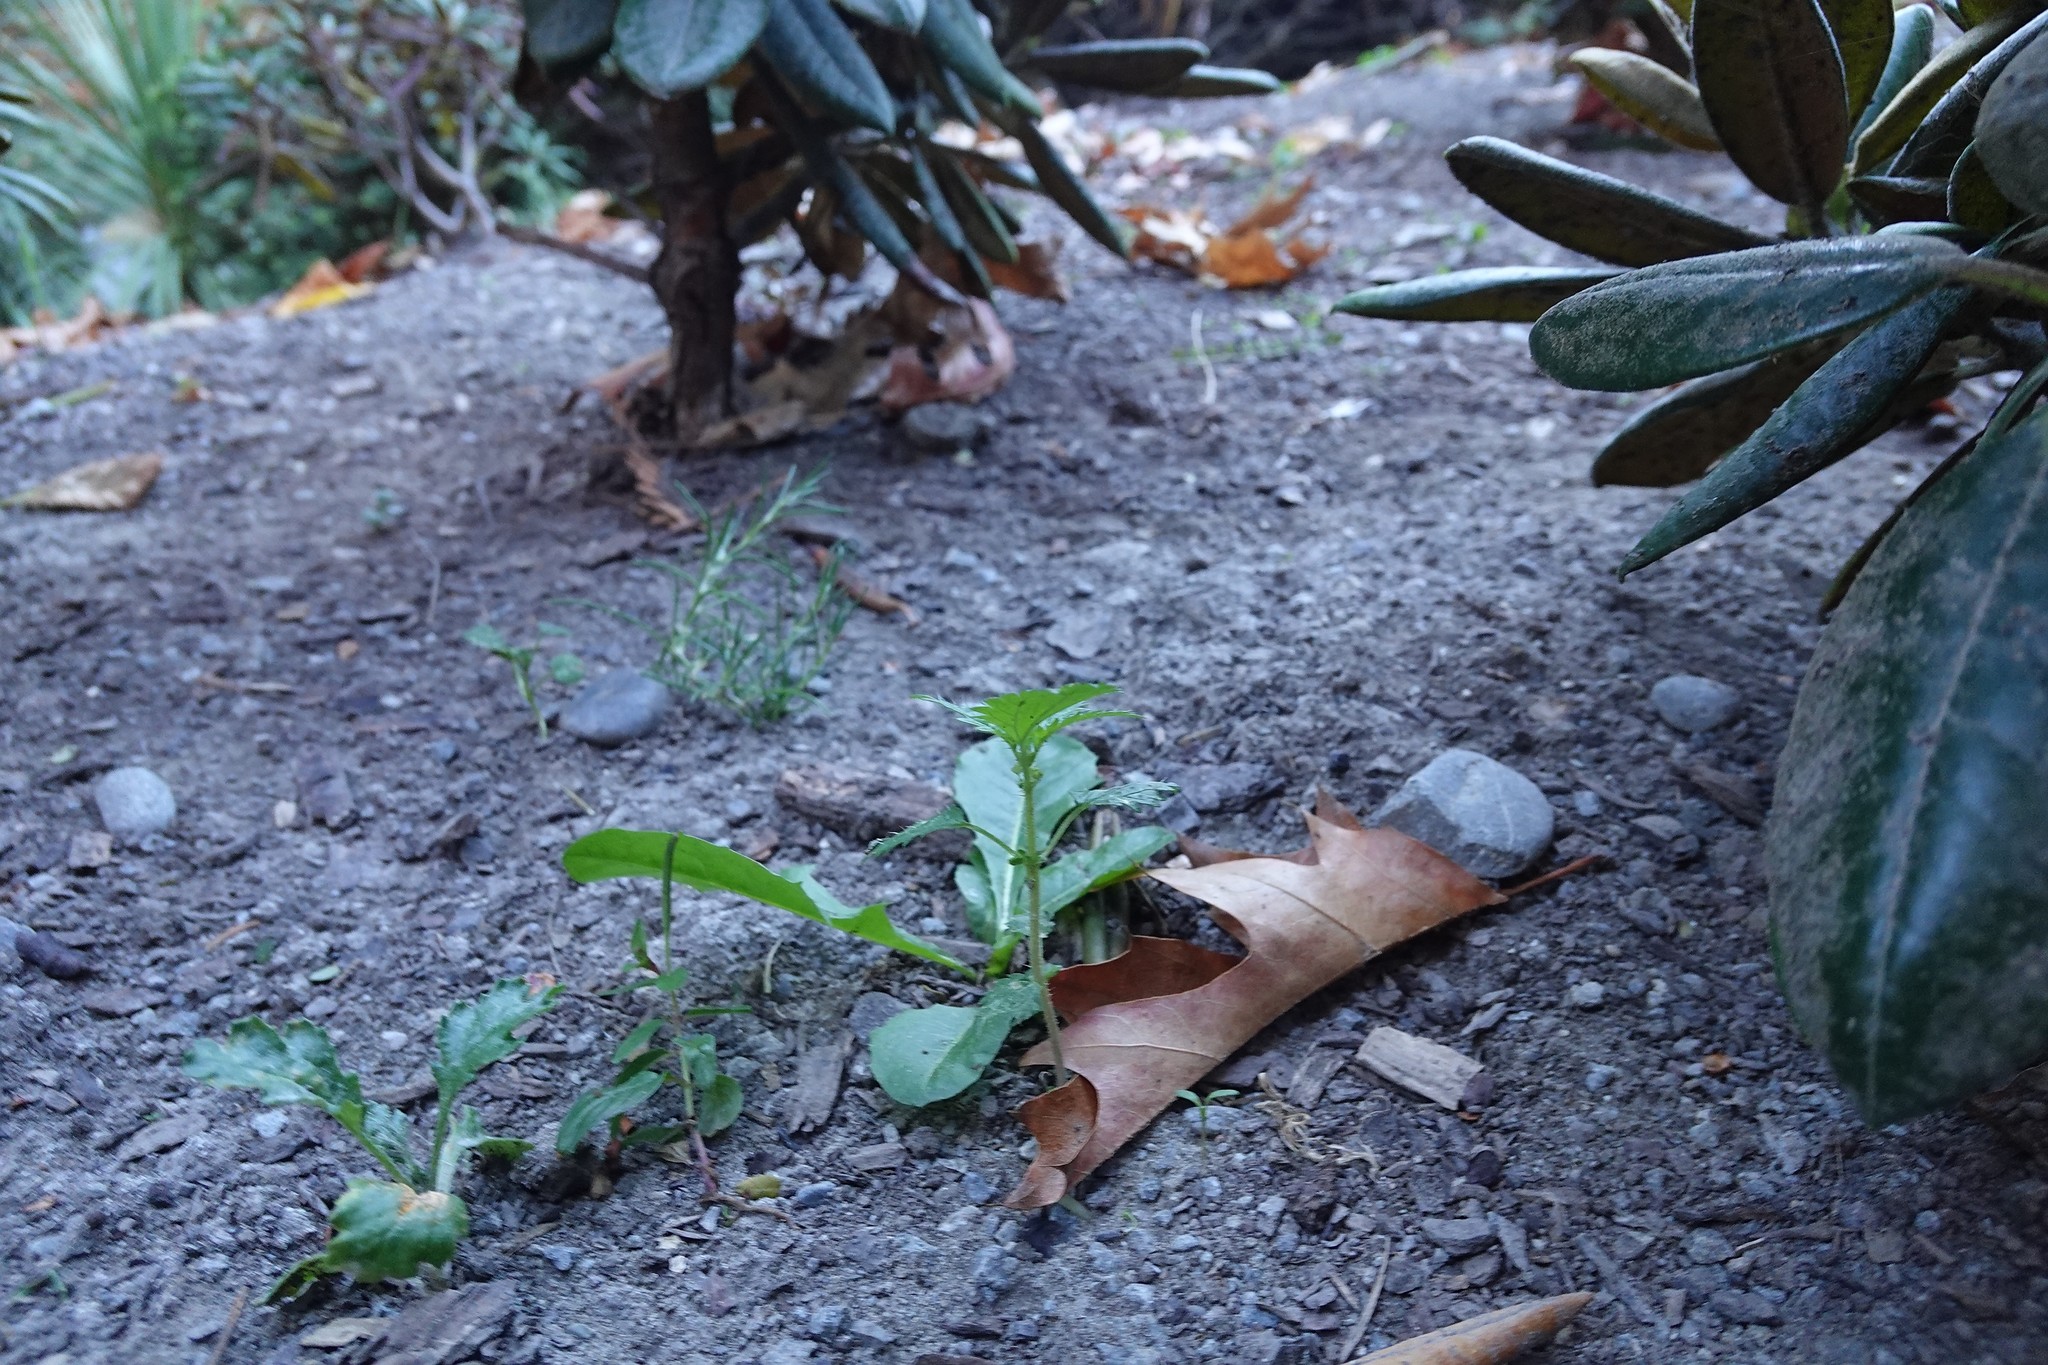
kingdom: Plantae
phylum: Tracheophyta
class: Magnoliopsida
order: Rosales
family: Urticaceae
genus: Urtica
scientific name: Urtica urens
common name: Dwarf nettle
